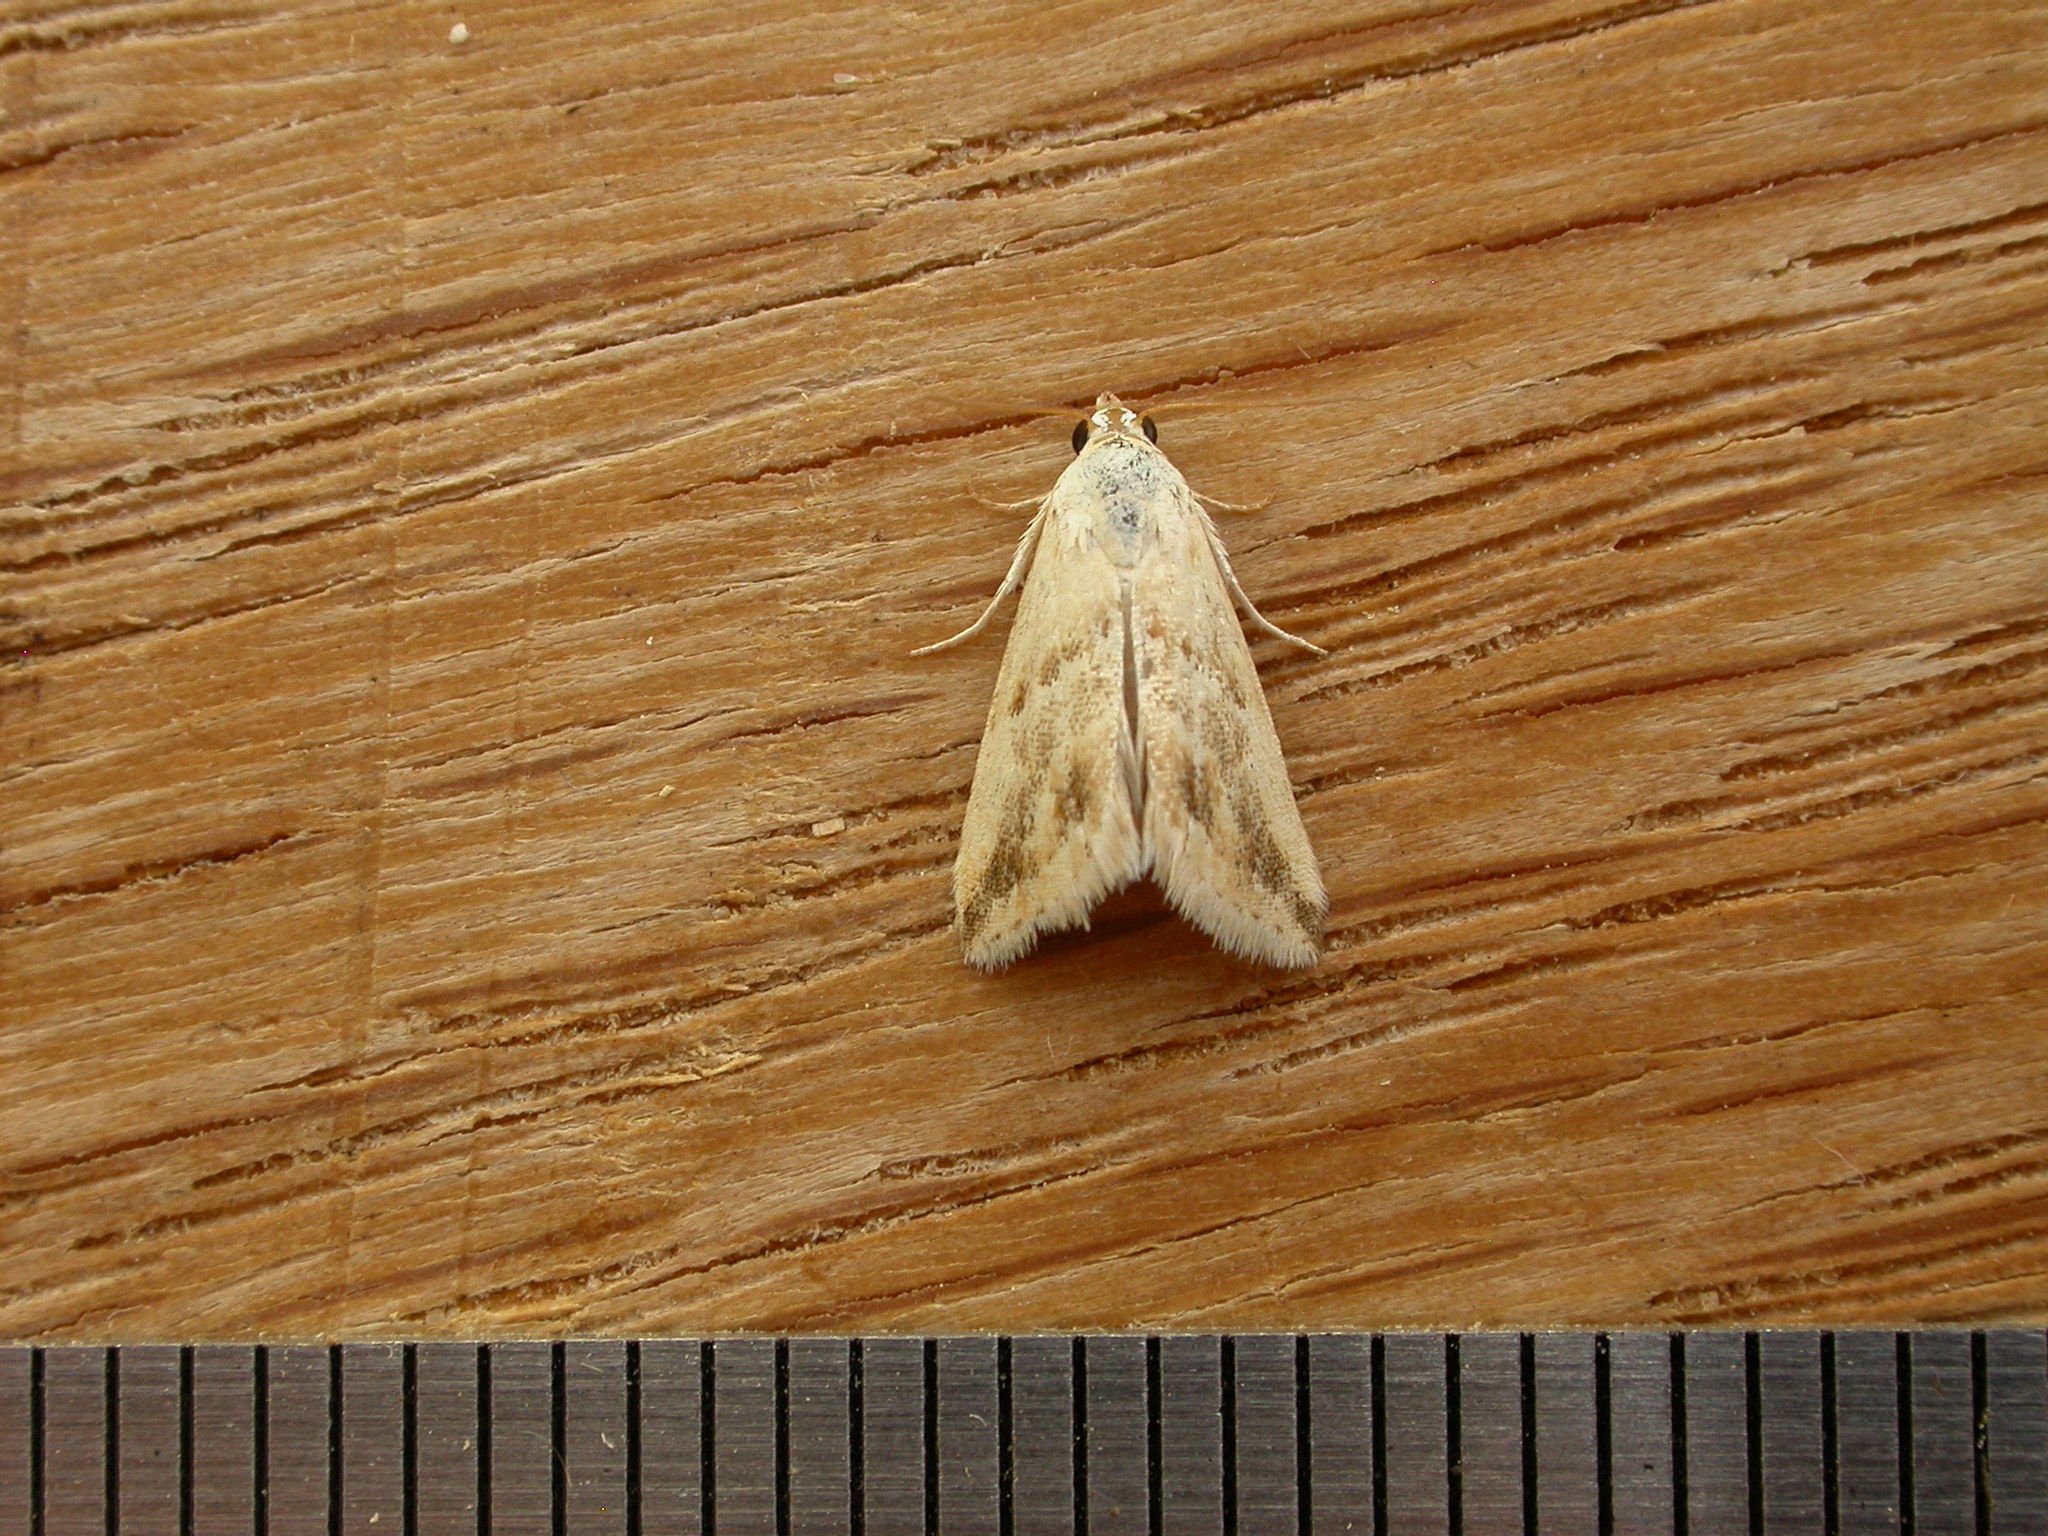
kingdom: Animalia
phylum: Arthropoda
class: Insecta
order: Lepidoptera
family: Noctuidae
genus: Eublemma
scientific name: Eublemma inconspicua
